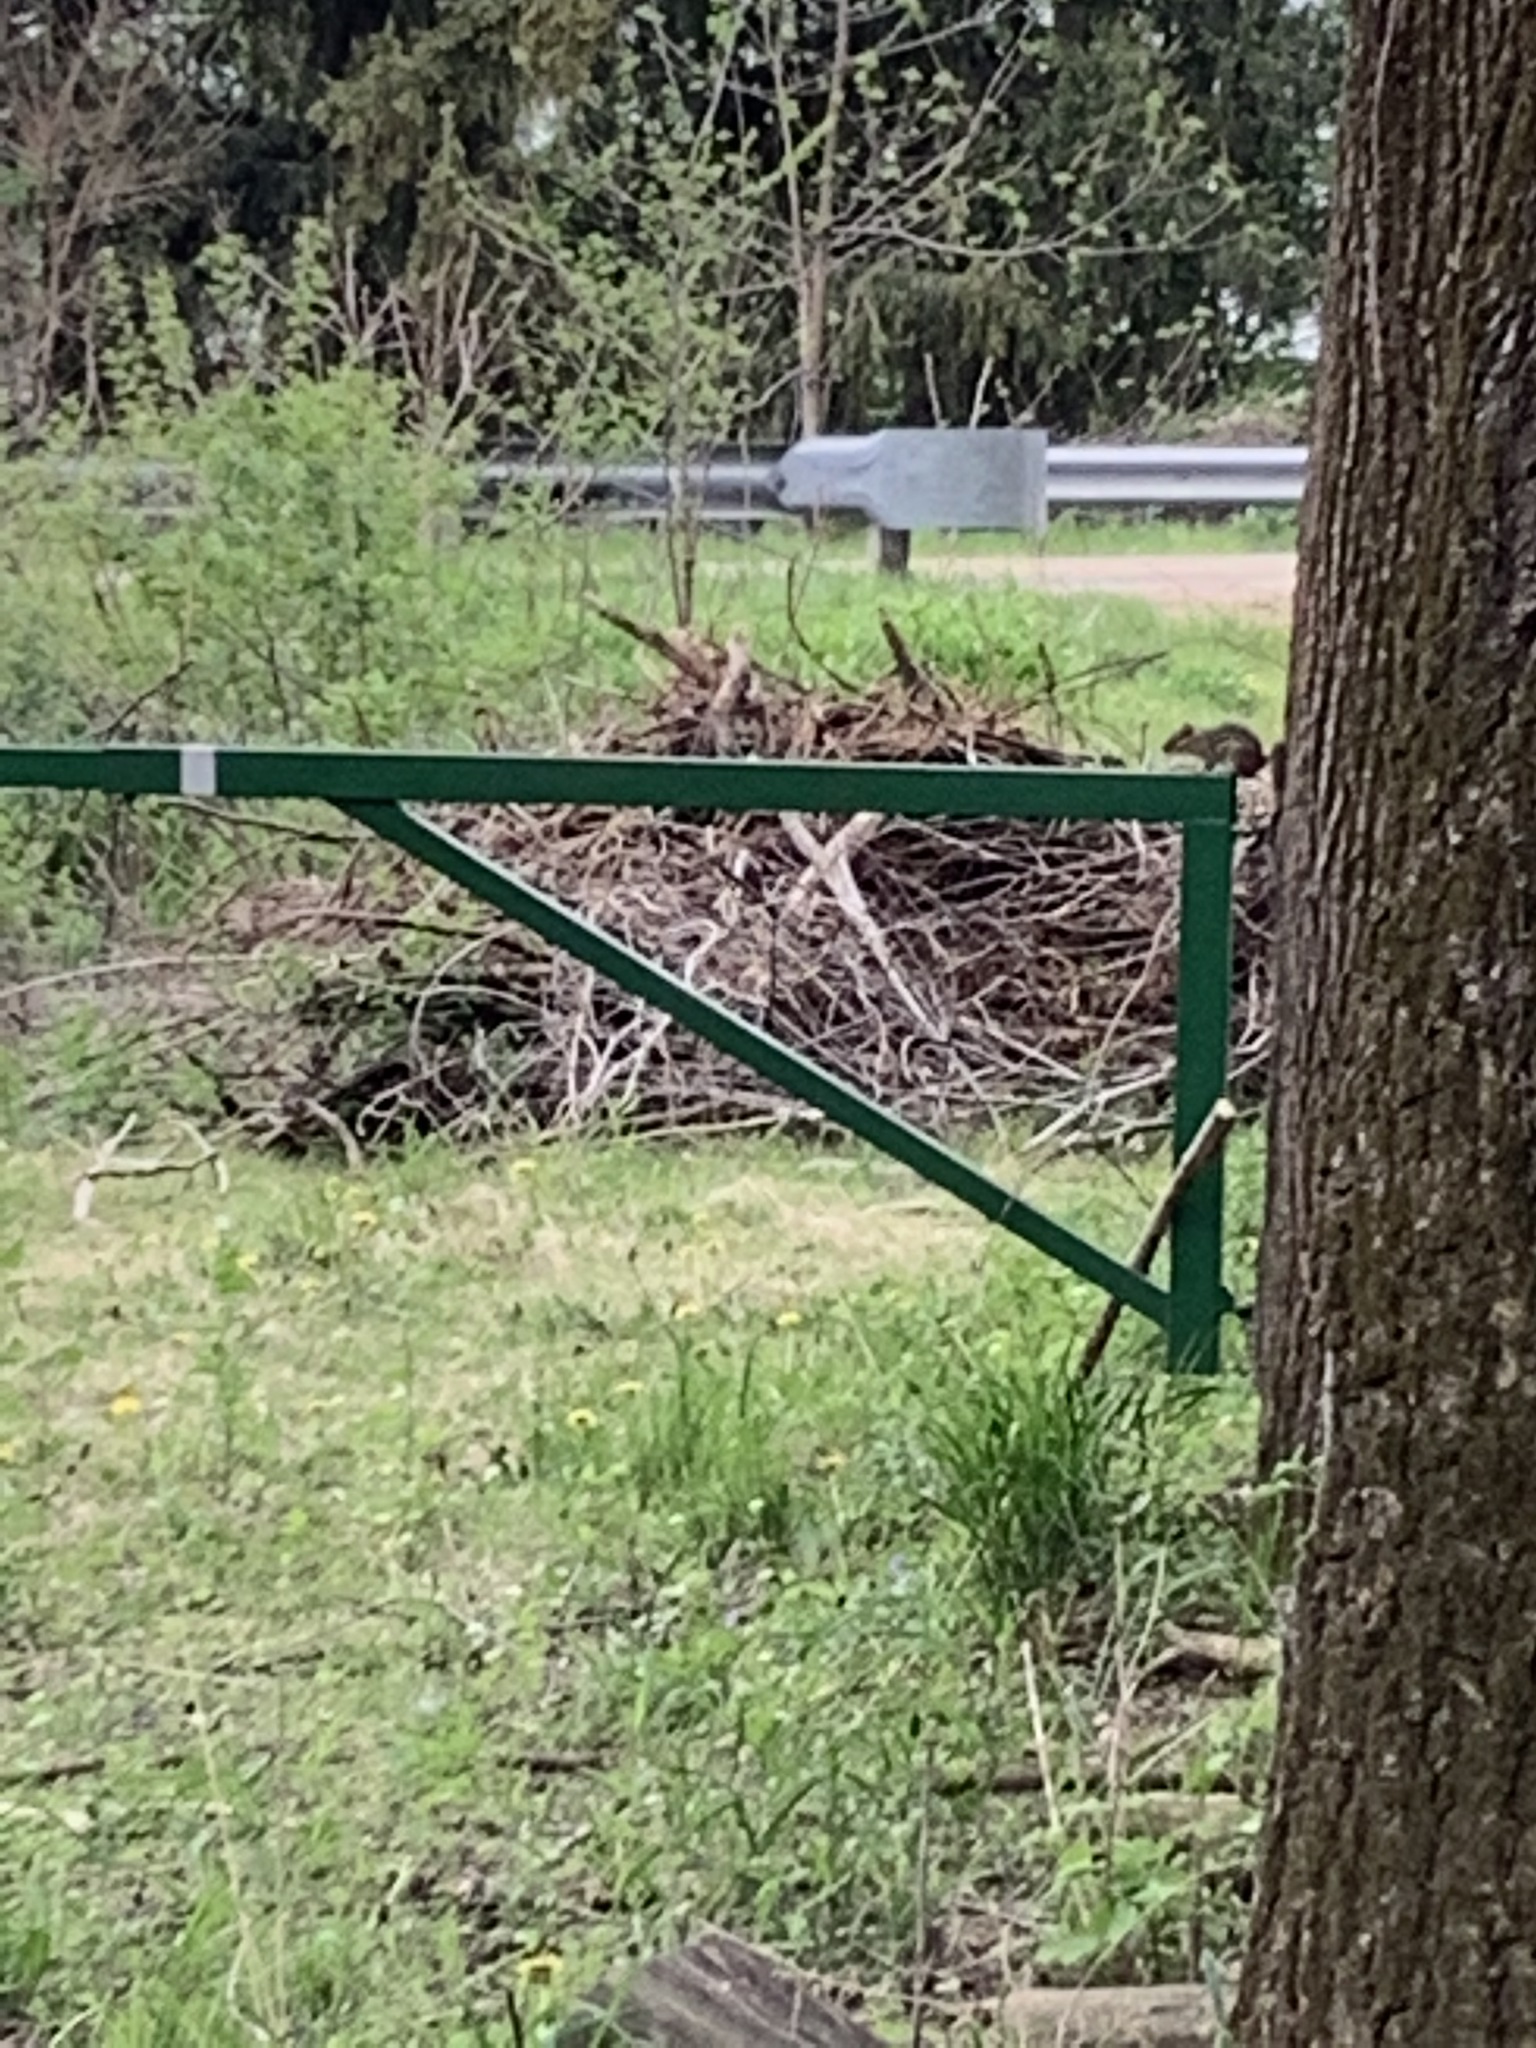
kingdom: Animalia
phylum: Chordata
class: Mammalia
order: Rodentia
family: Sciuridae
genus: Tamias
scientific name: Tamias striatus
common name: Eastern chipmunk
